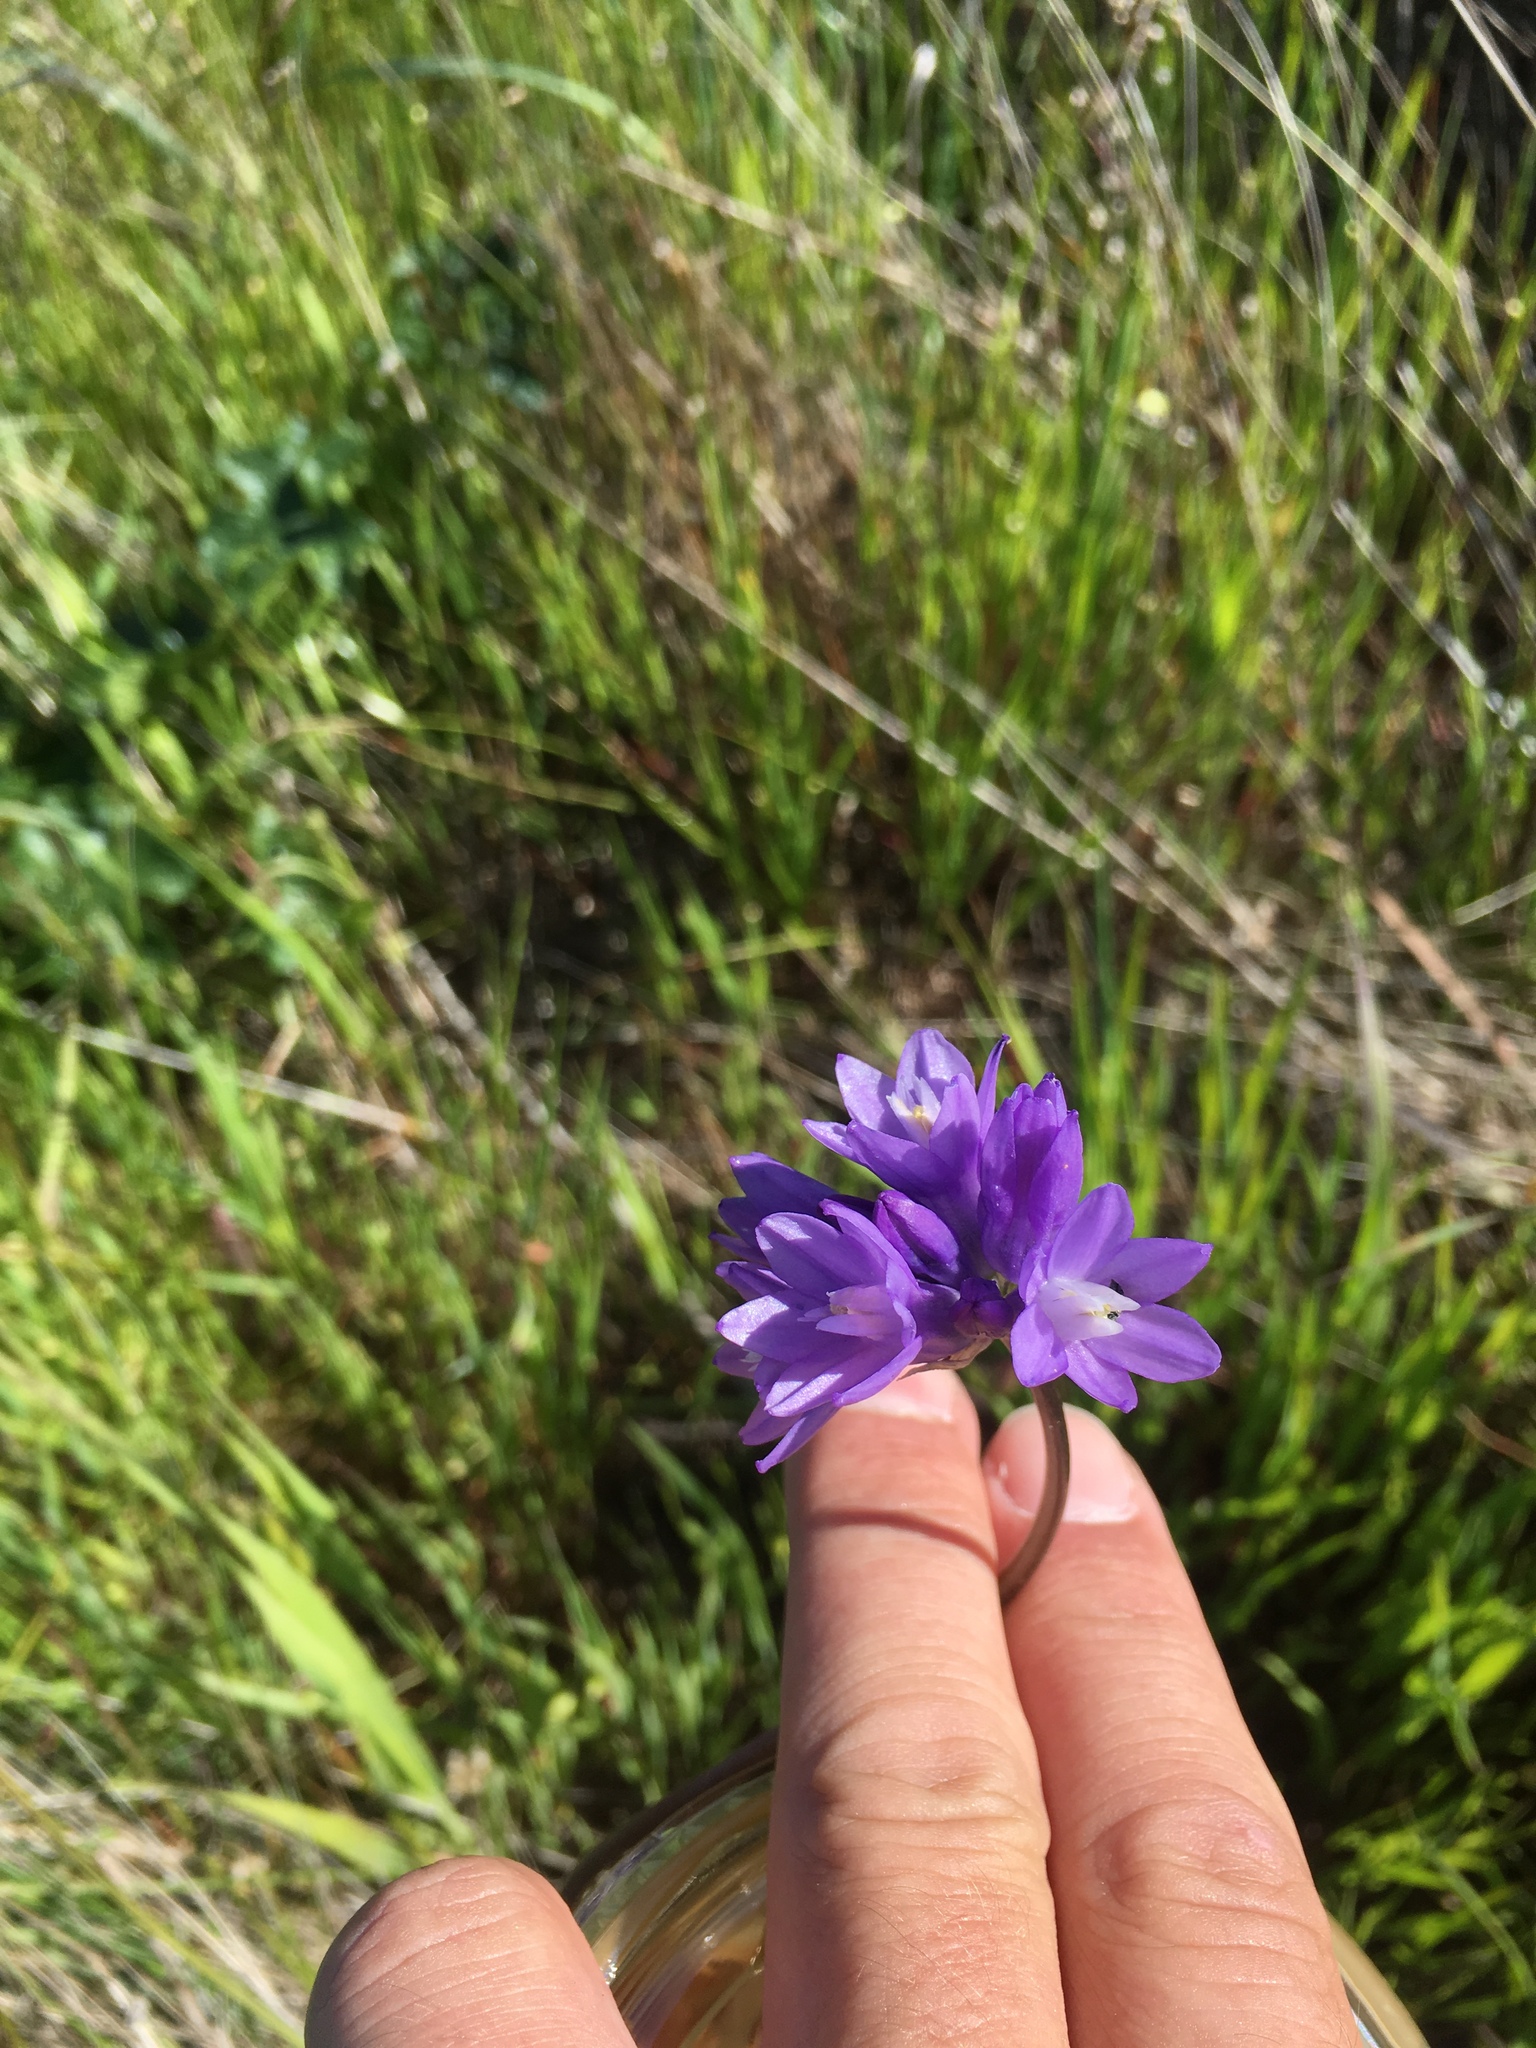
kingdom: Plantae
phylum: Tracheophyta
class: Liliopsida
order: Asparagales
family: Asparagaceae
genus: Dipterostemon
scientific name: Dipterostemon capitatus
